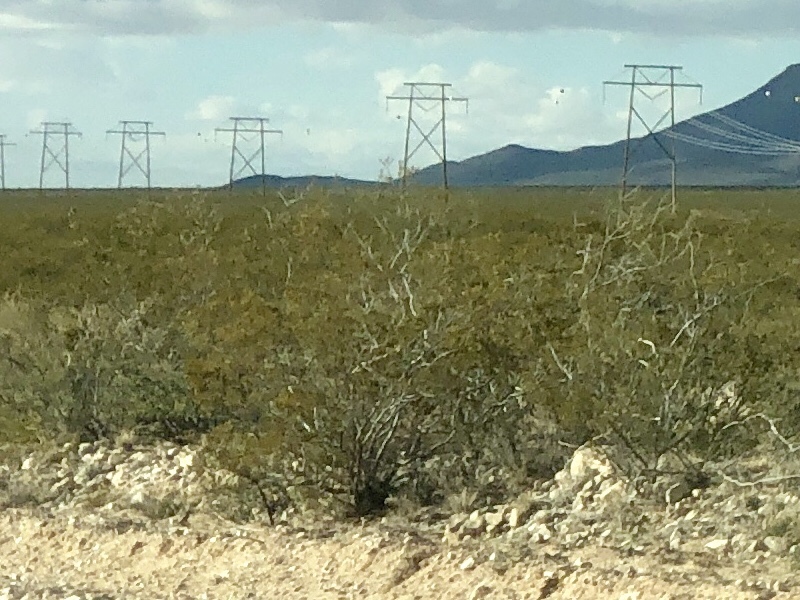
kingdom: Plantae
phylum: Tracheophyta
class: Magnoliopsida
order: Zygophyllales
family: Zygophyllaceae
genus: Larrea
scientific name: Larrea tridentata
